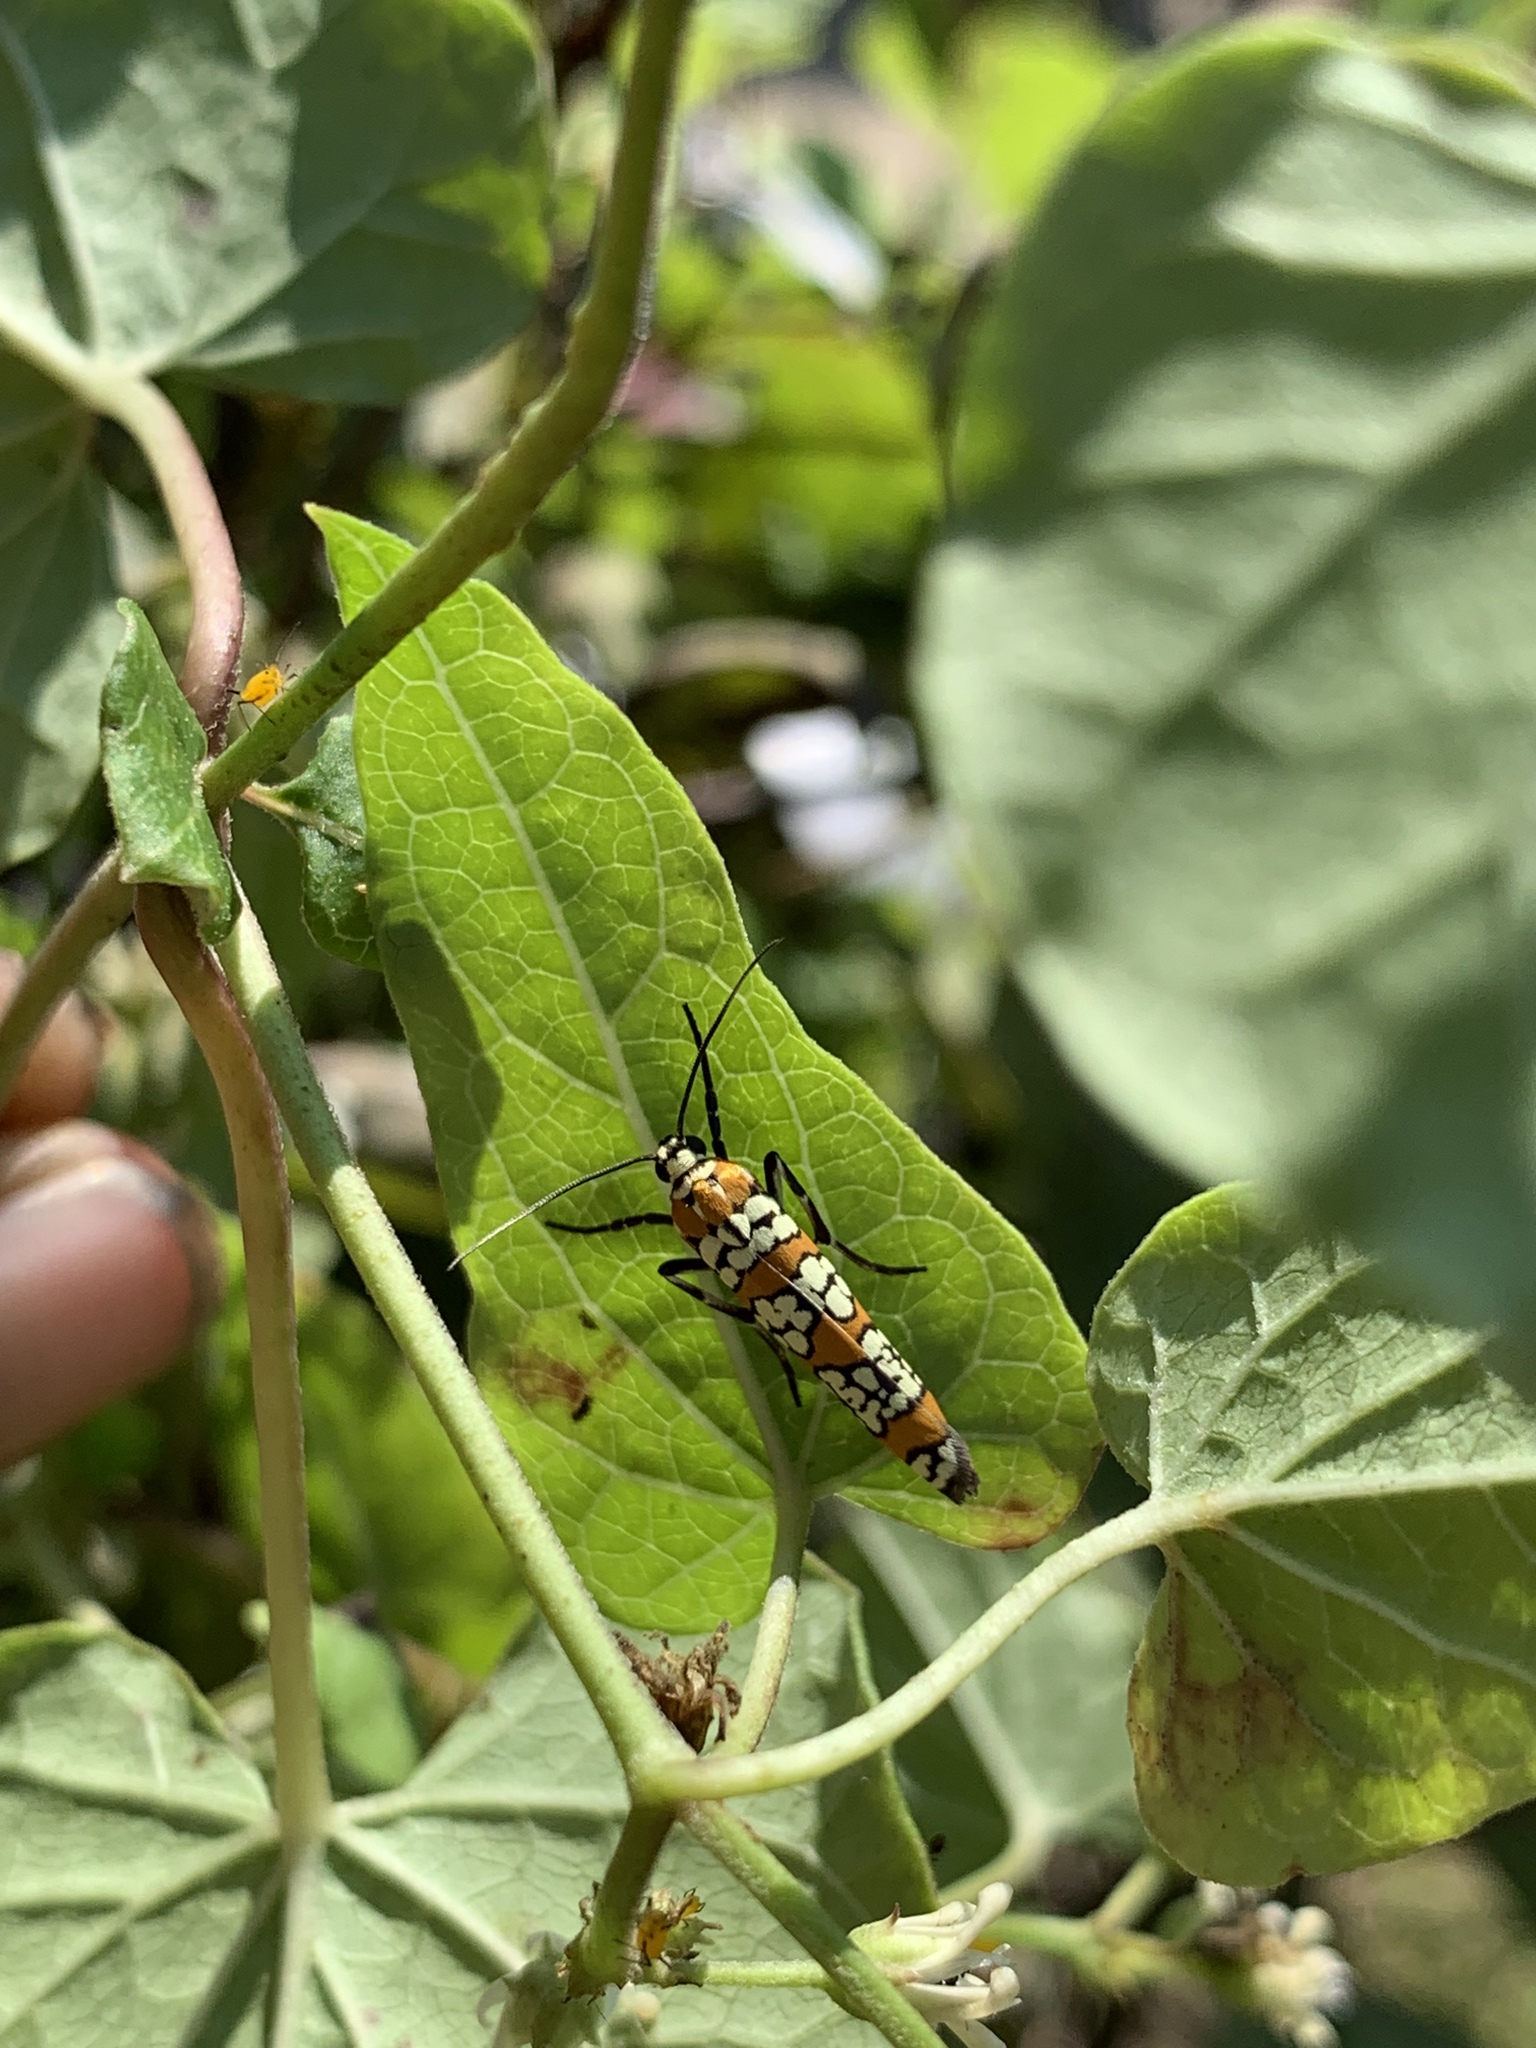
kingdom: Animalia
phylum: Arthropoda
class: Insecta
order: Lepidoptera
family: Attevidae
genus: Atteva
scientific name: Atteva punctella
